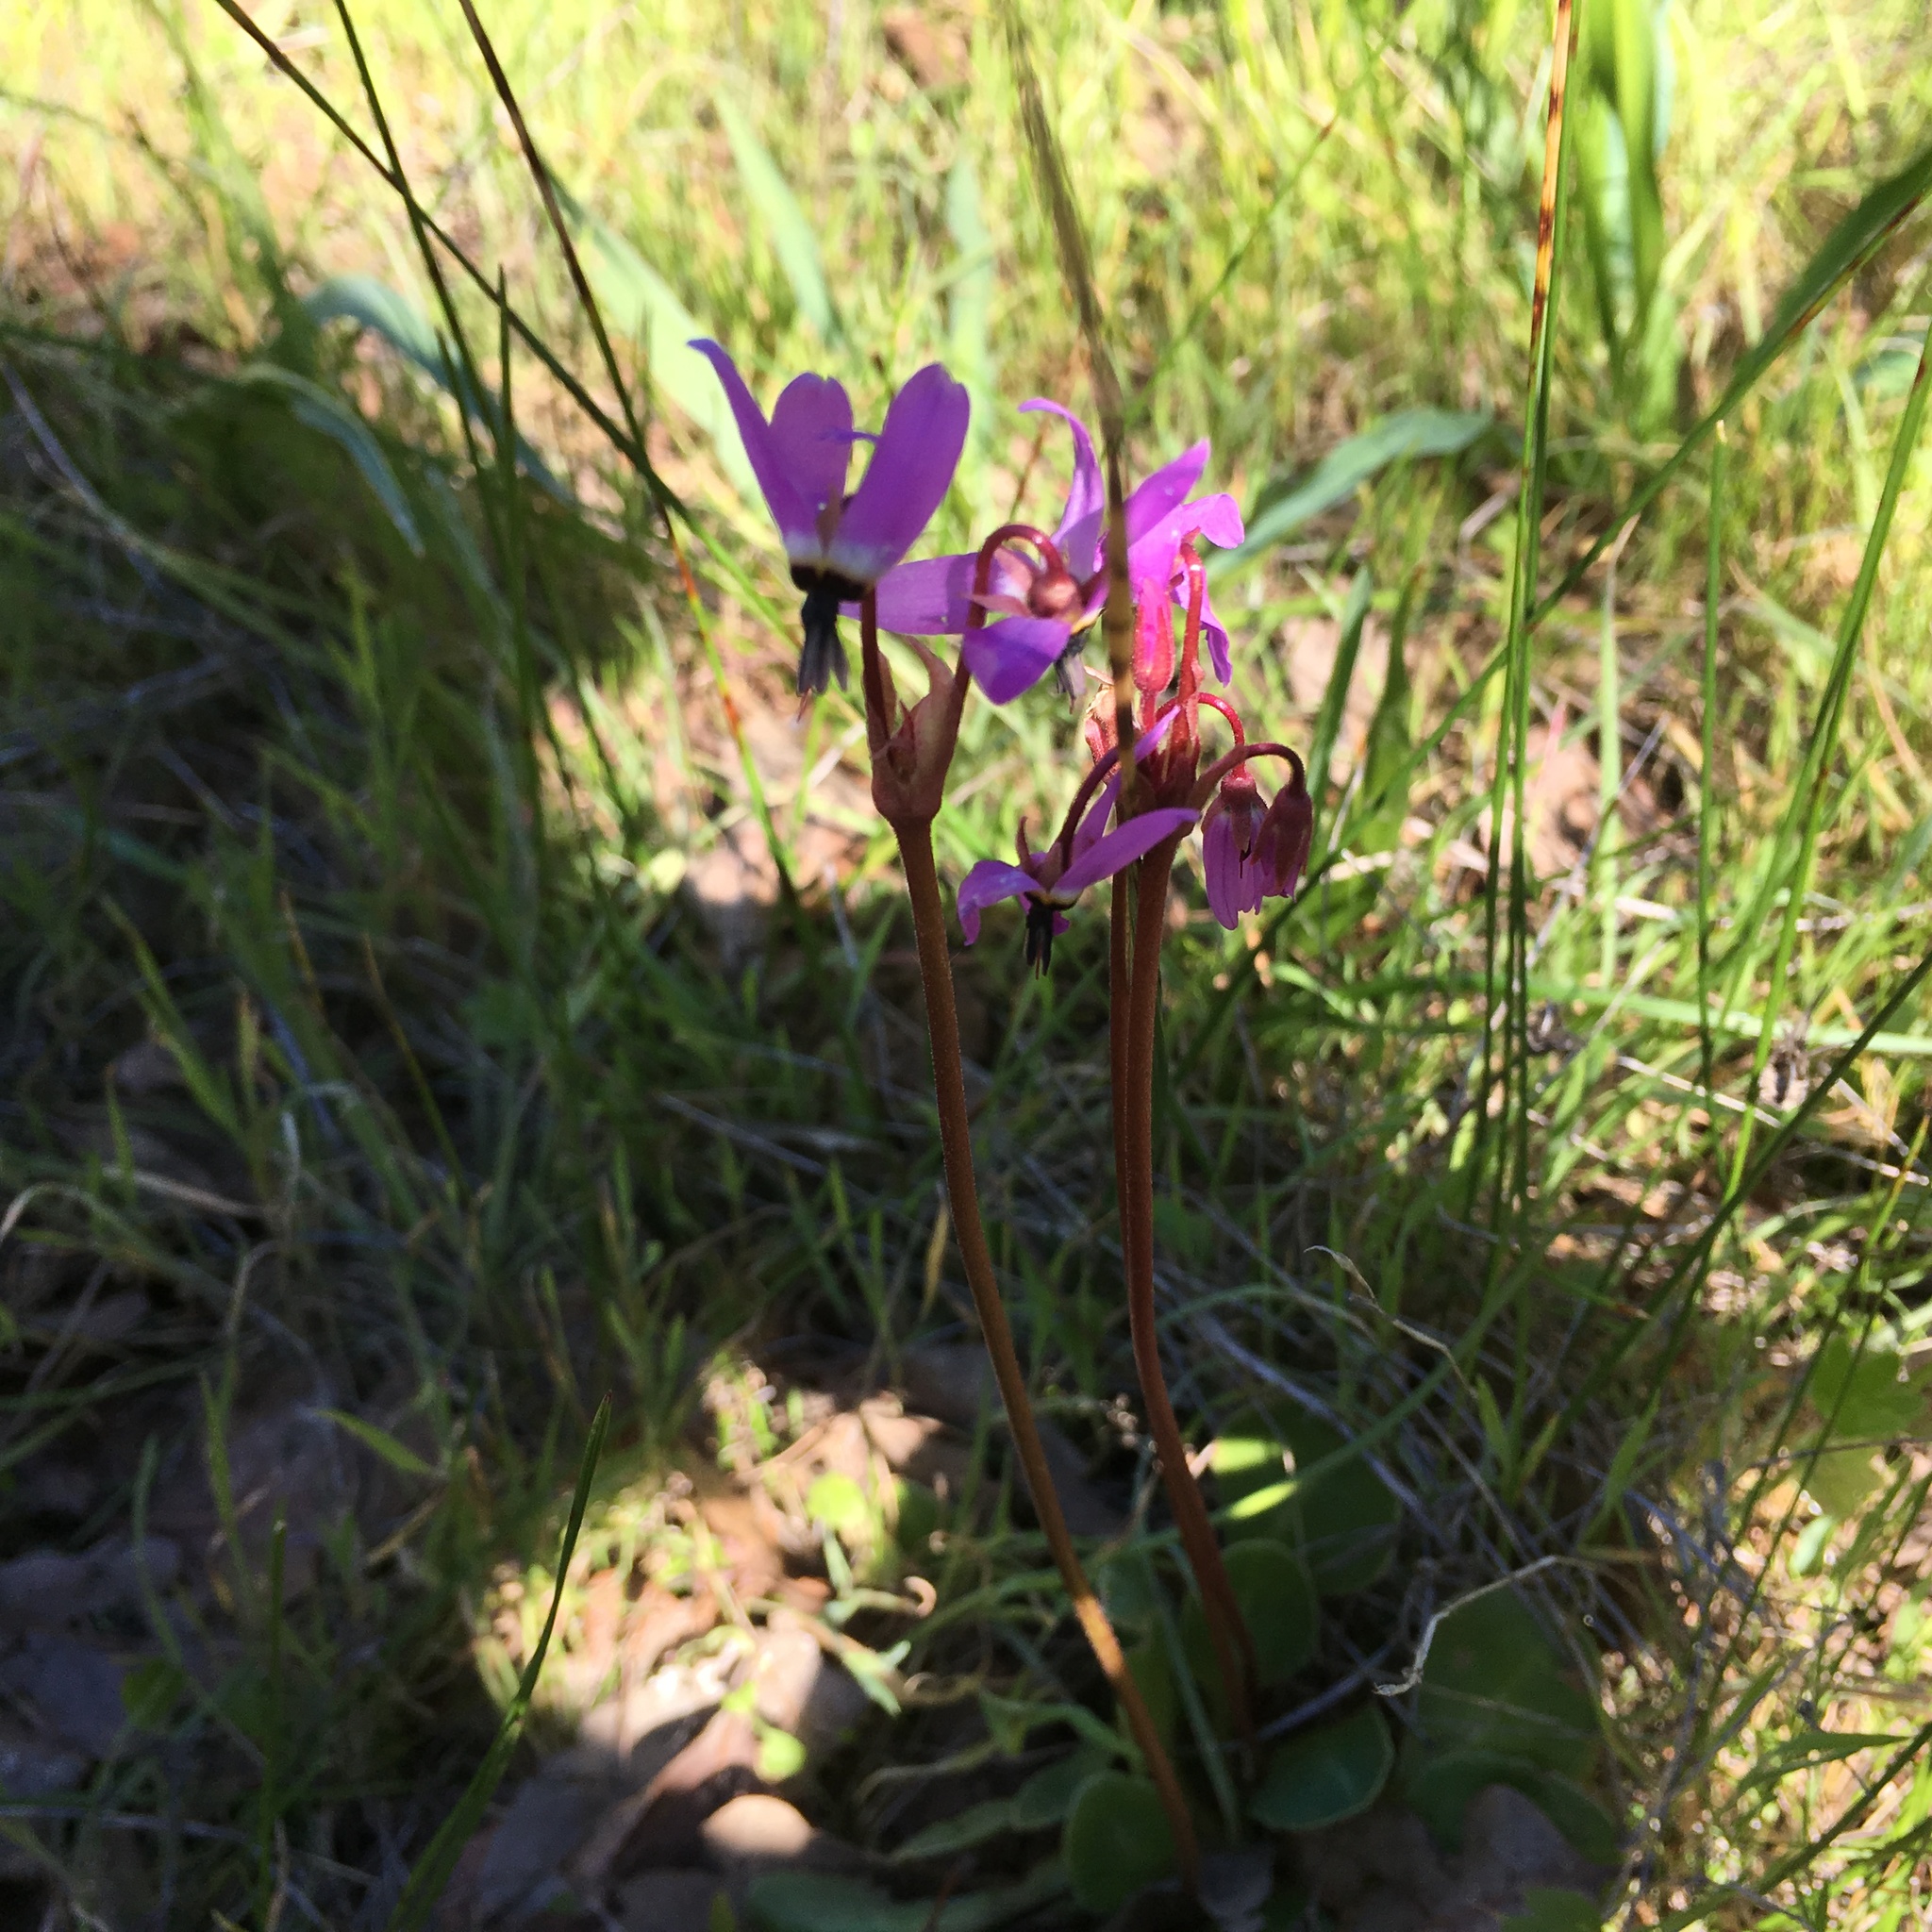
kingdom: Plantae
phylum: Tracheophyta
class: Magnoliopsida
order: Ericales
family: Primulaceae
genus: Dodecatheon
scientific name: Dodecatheon hendersonii
